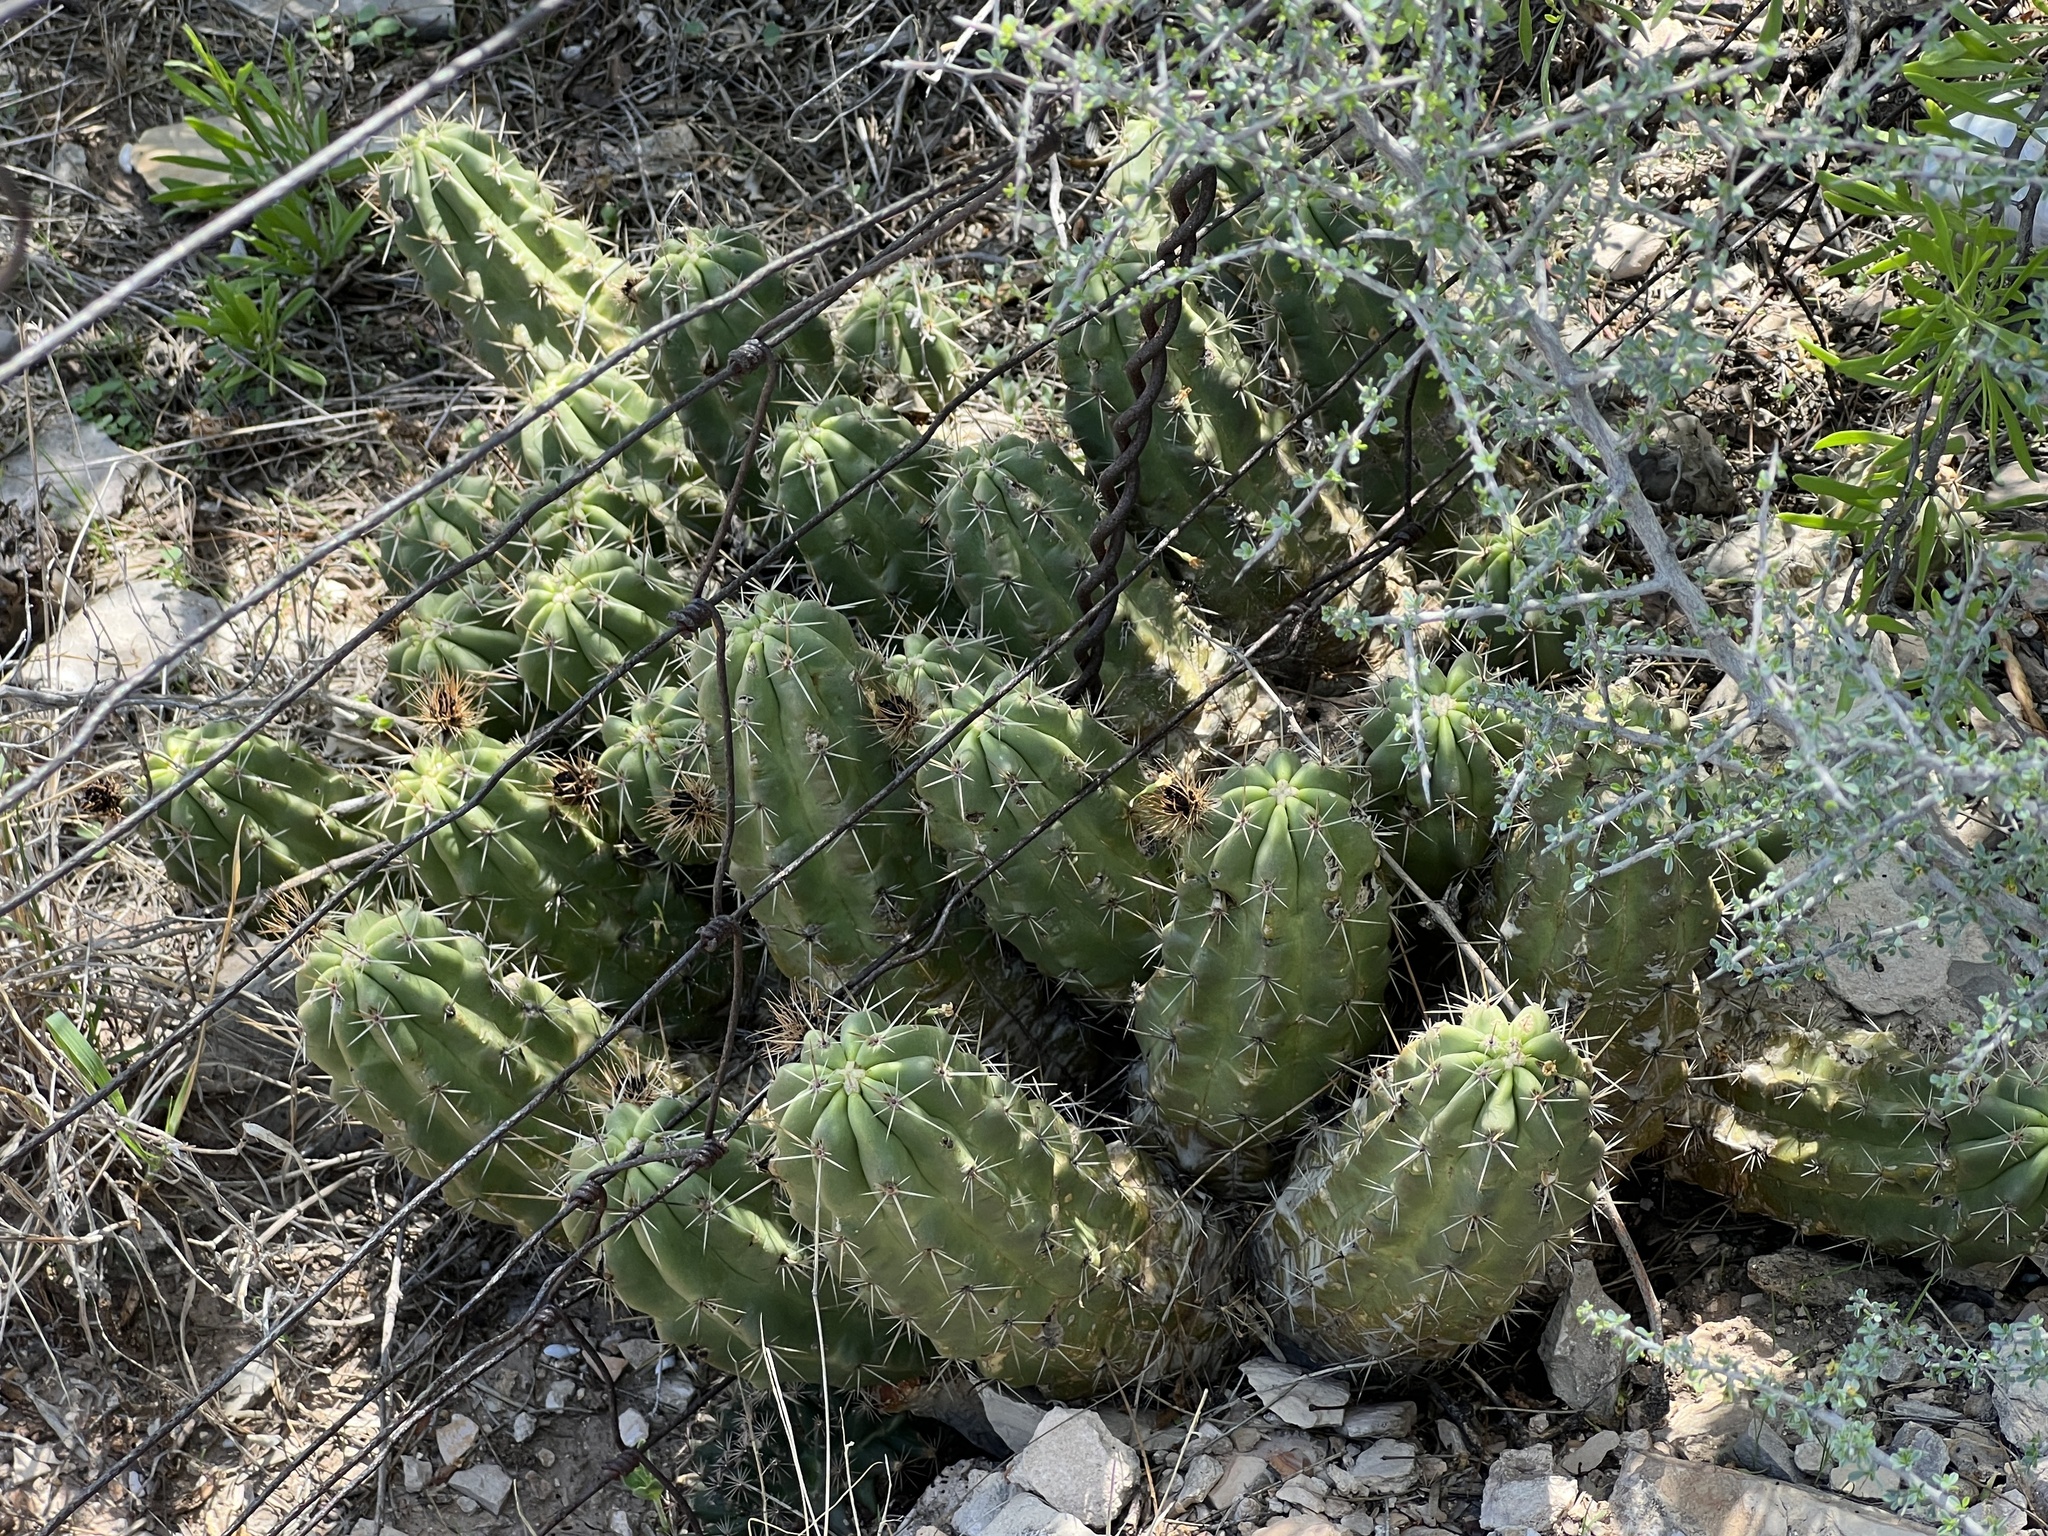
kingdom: Plantae
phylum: Tracheophyta
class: Magnoliopsida
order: Caryophyllales
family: Cactaceae
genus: Echinocereus
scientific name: Echinocereus enneacanthus
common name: Pitaya
